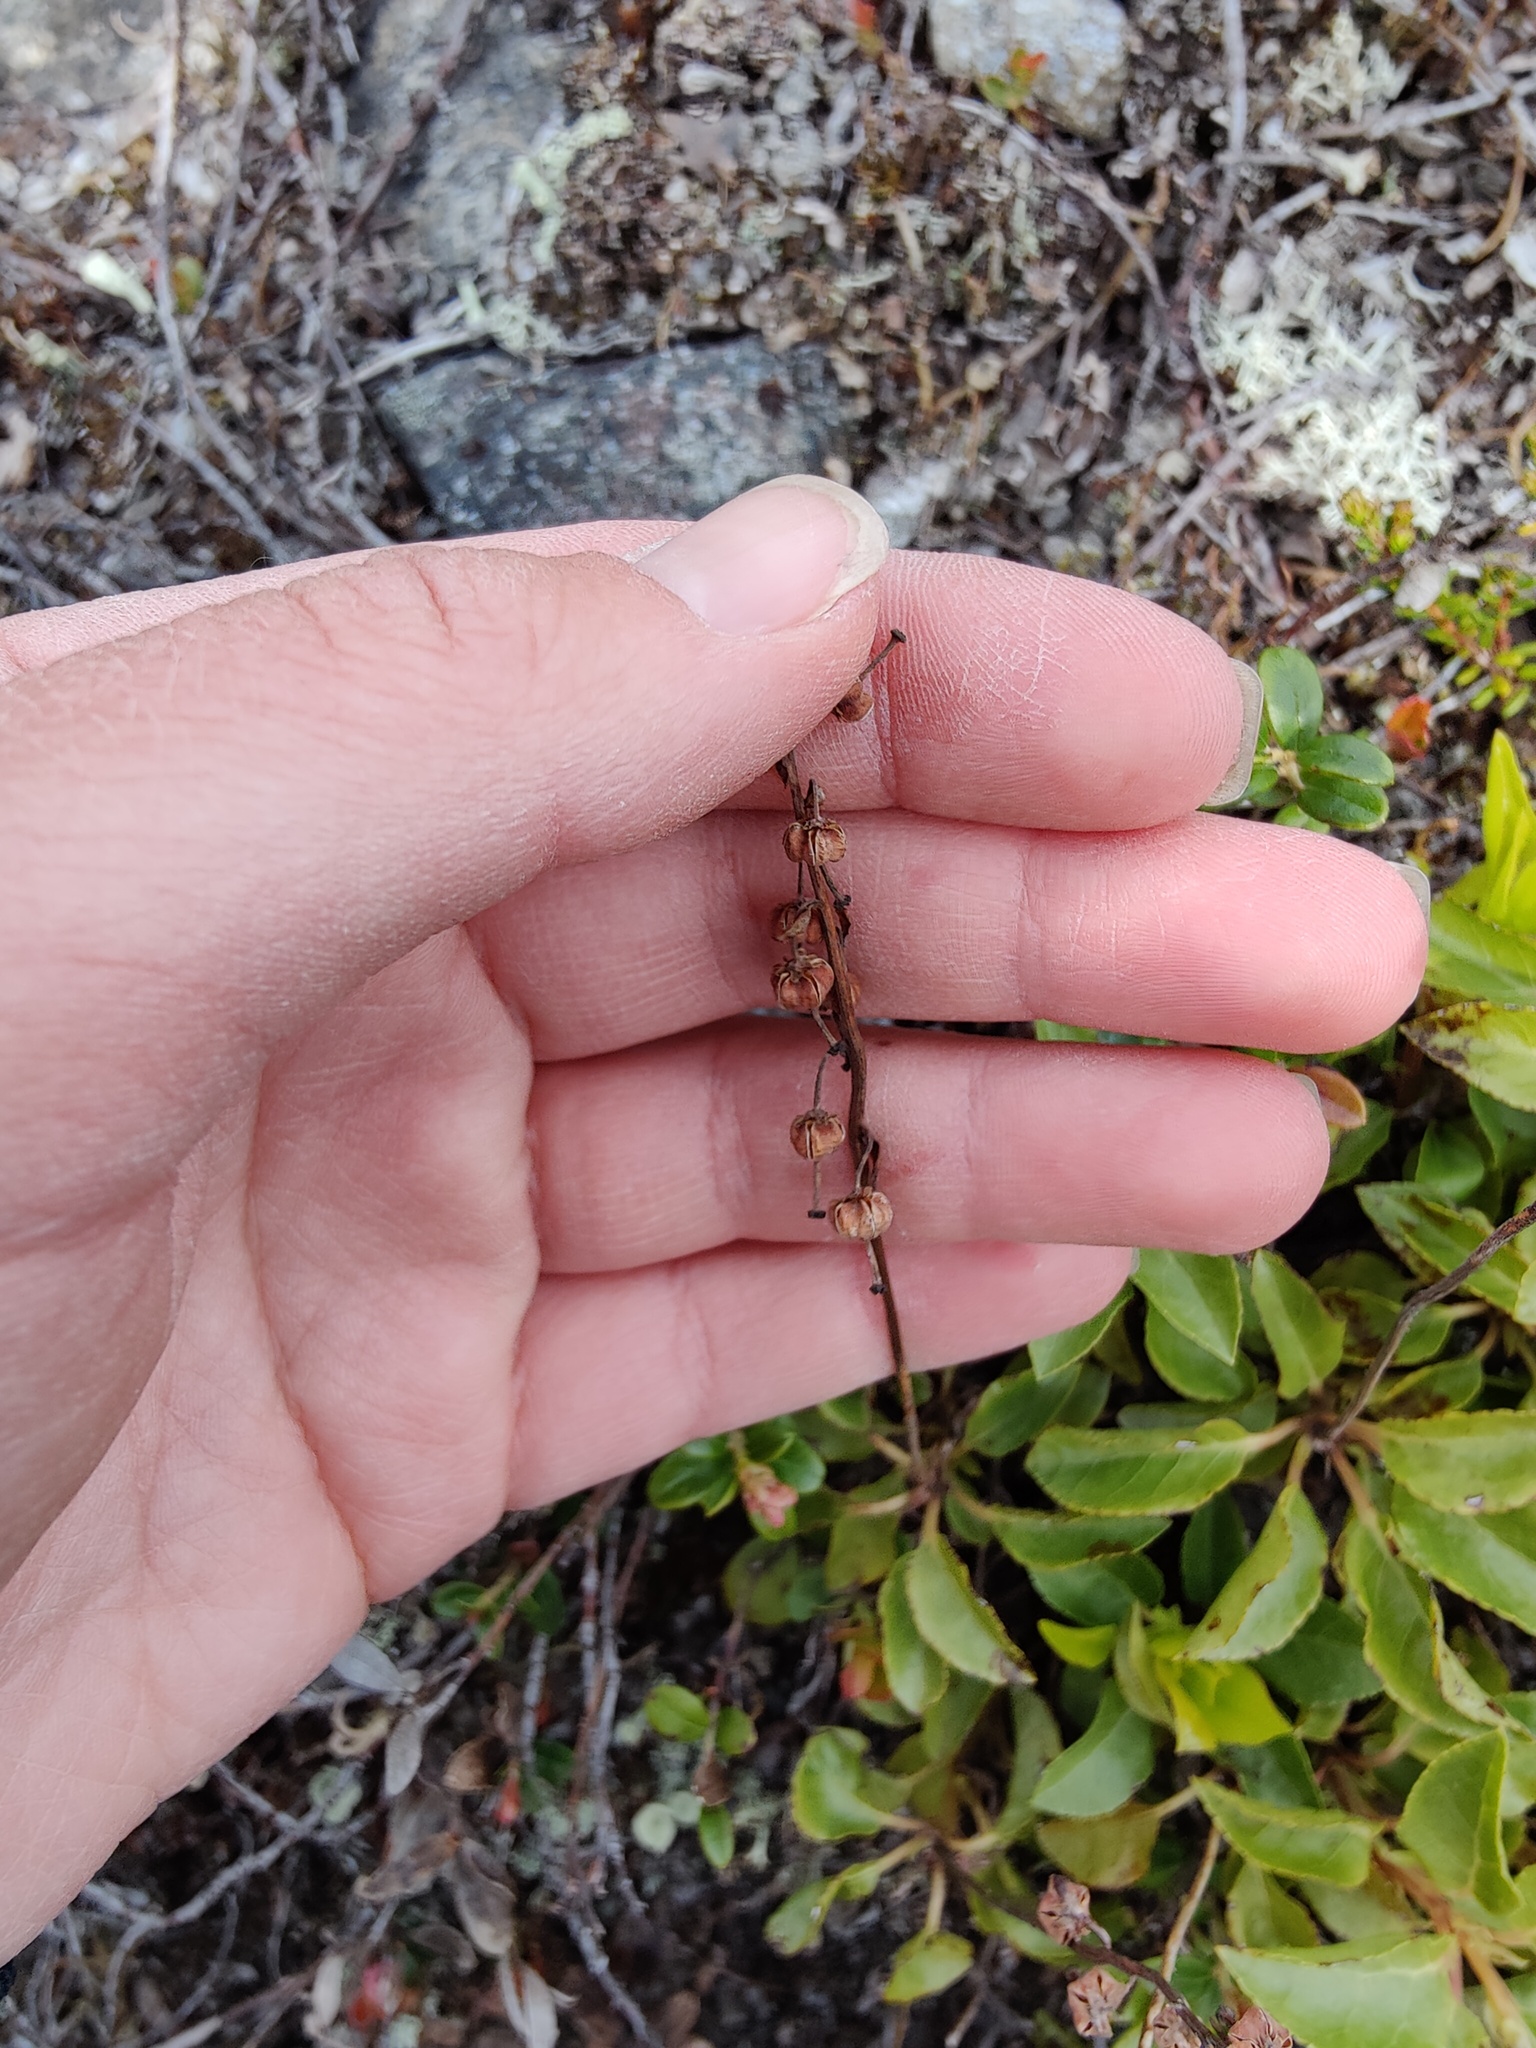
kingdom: Plantae
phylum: Tracheophyta
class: Magnoliopsida
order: Ericales
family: Ericaceae
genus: Orthilia
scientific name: Orthilia secunda
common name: One-sided orthilia
